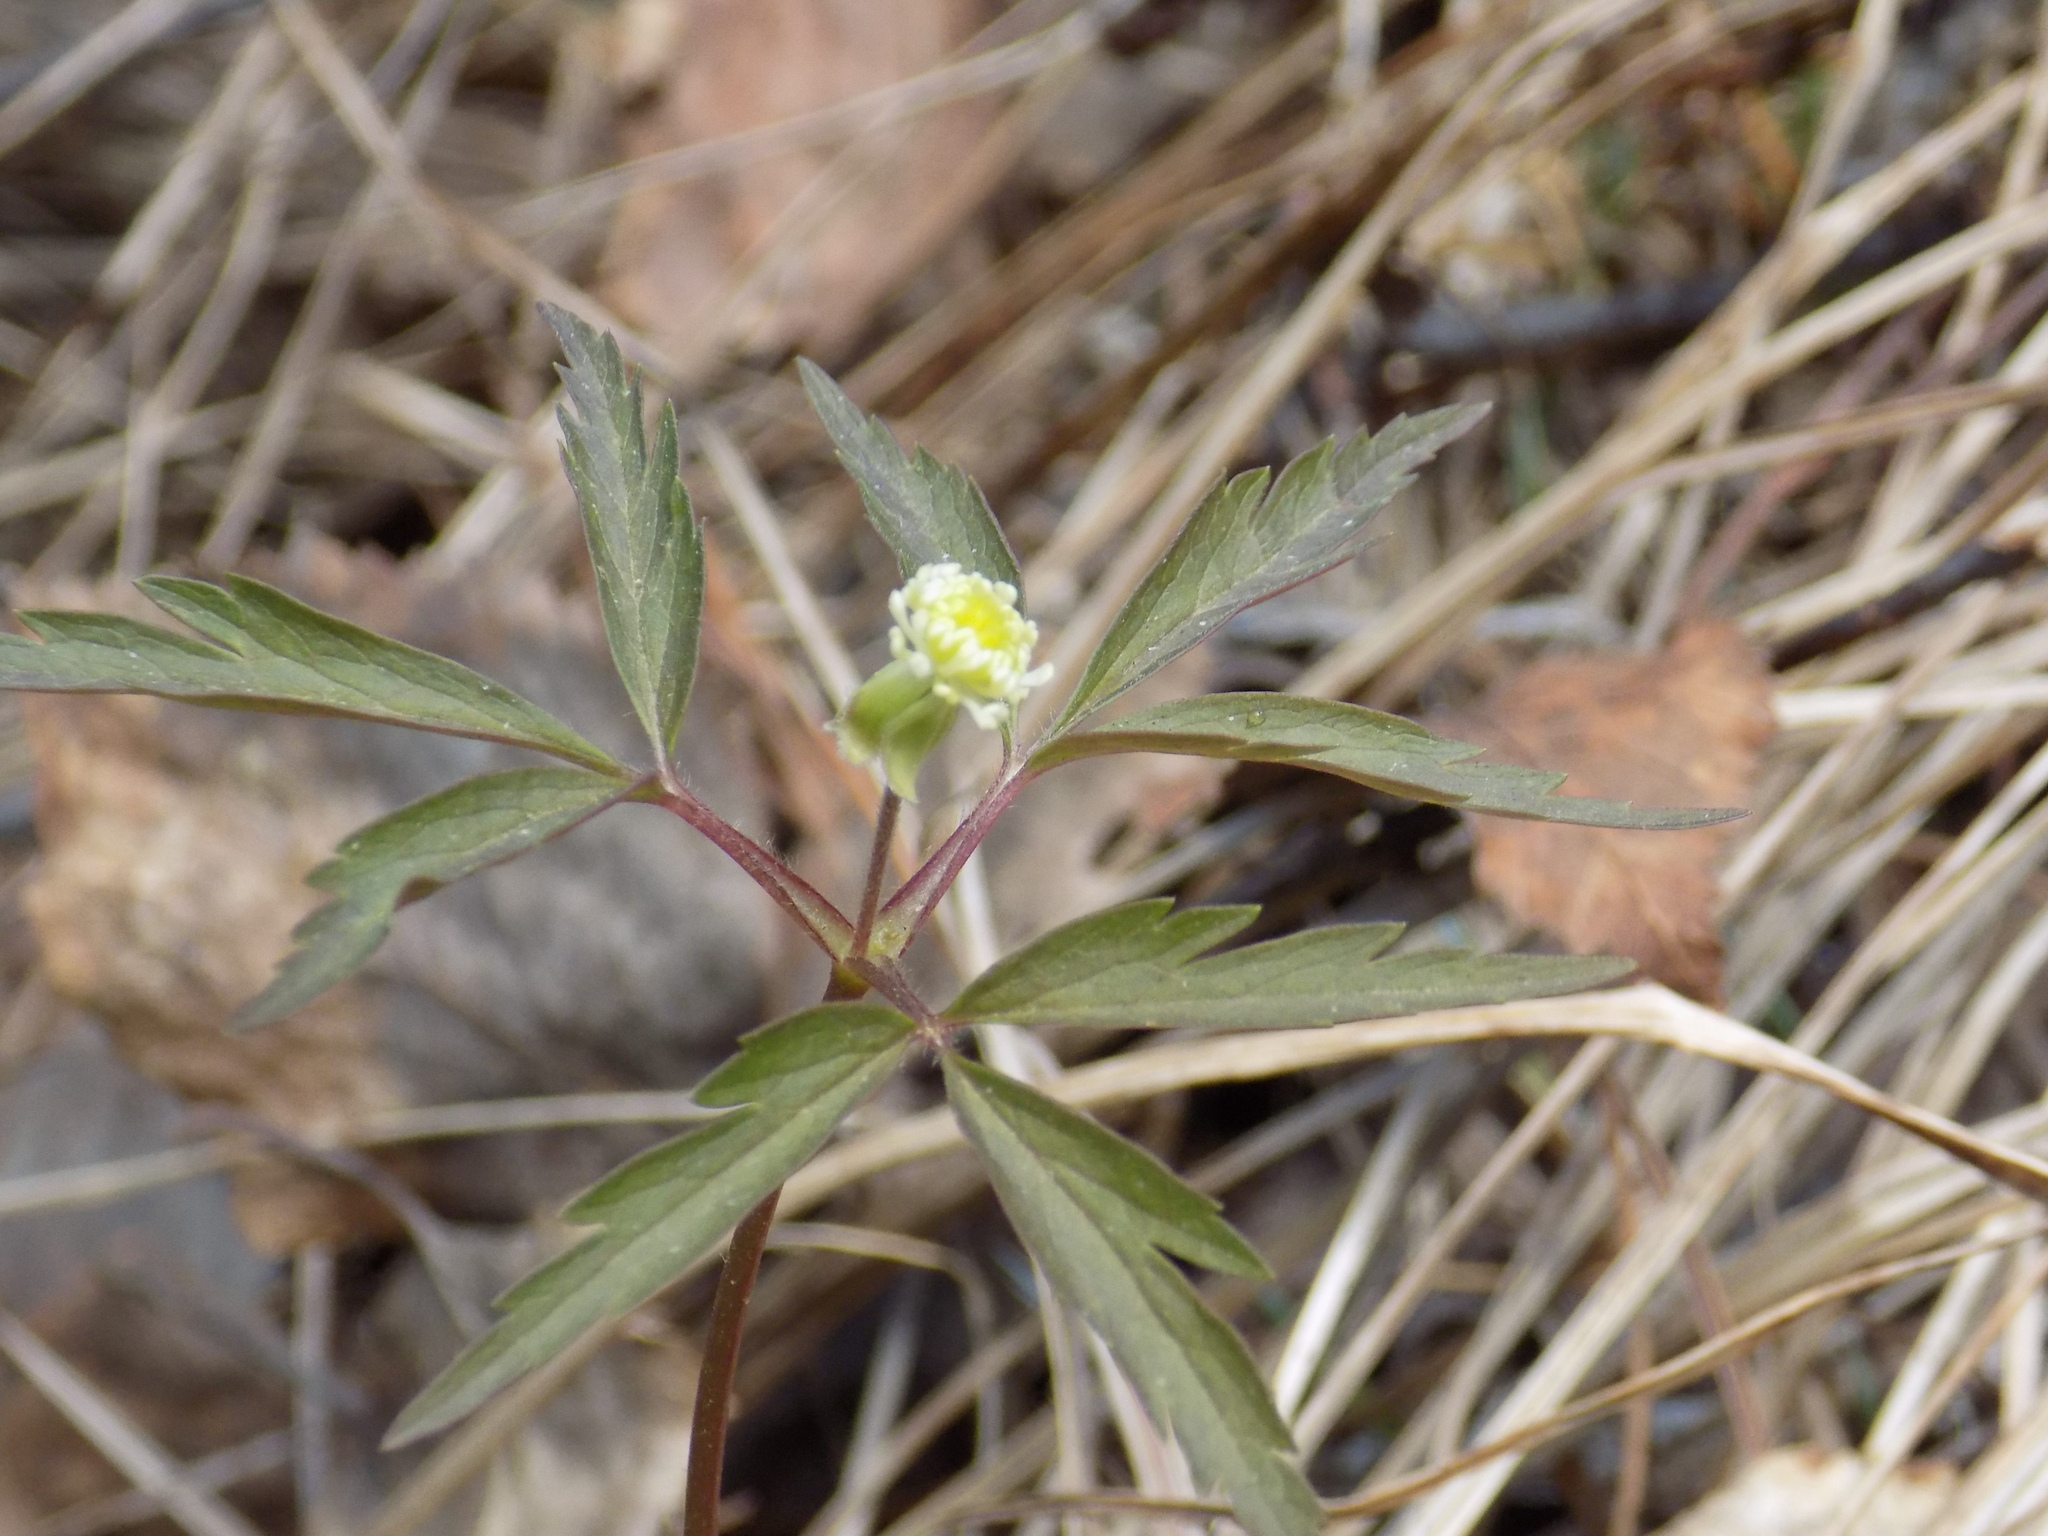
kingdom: Plantae
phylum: Tracheophyta
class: Magnoliopsida
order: Ranunculales
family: Ranunculaceae
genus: Anemone
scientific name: Anemone reflexa
